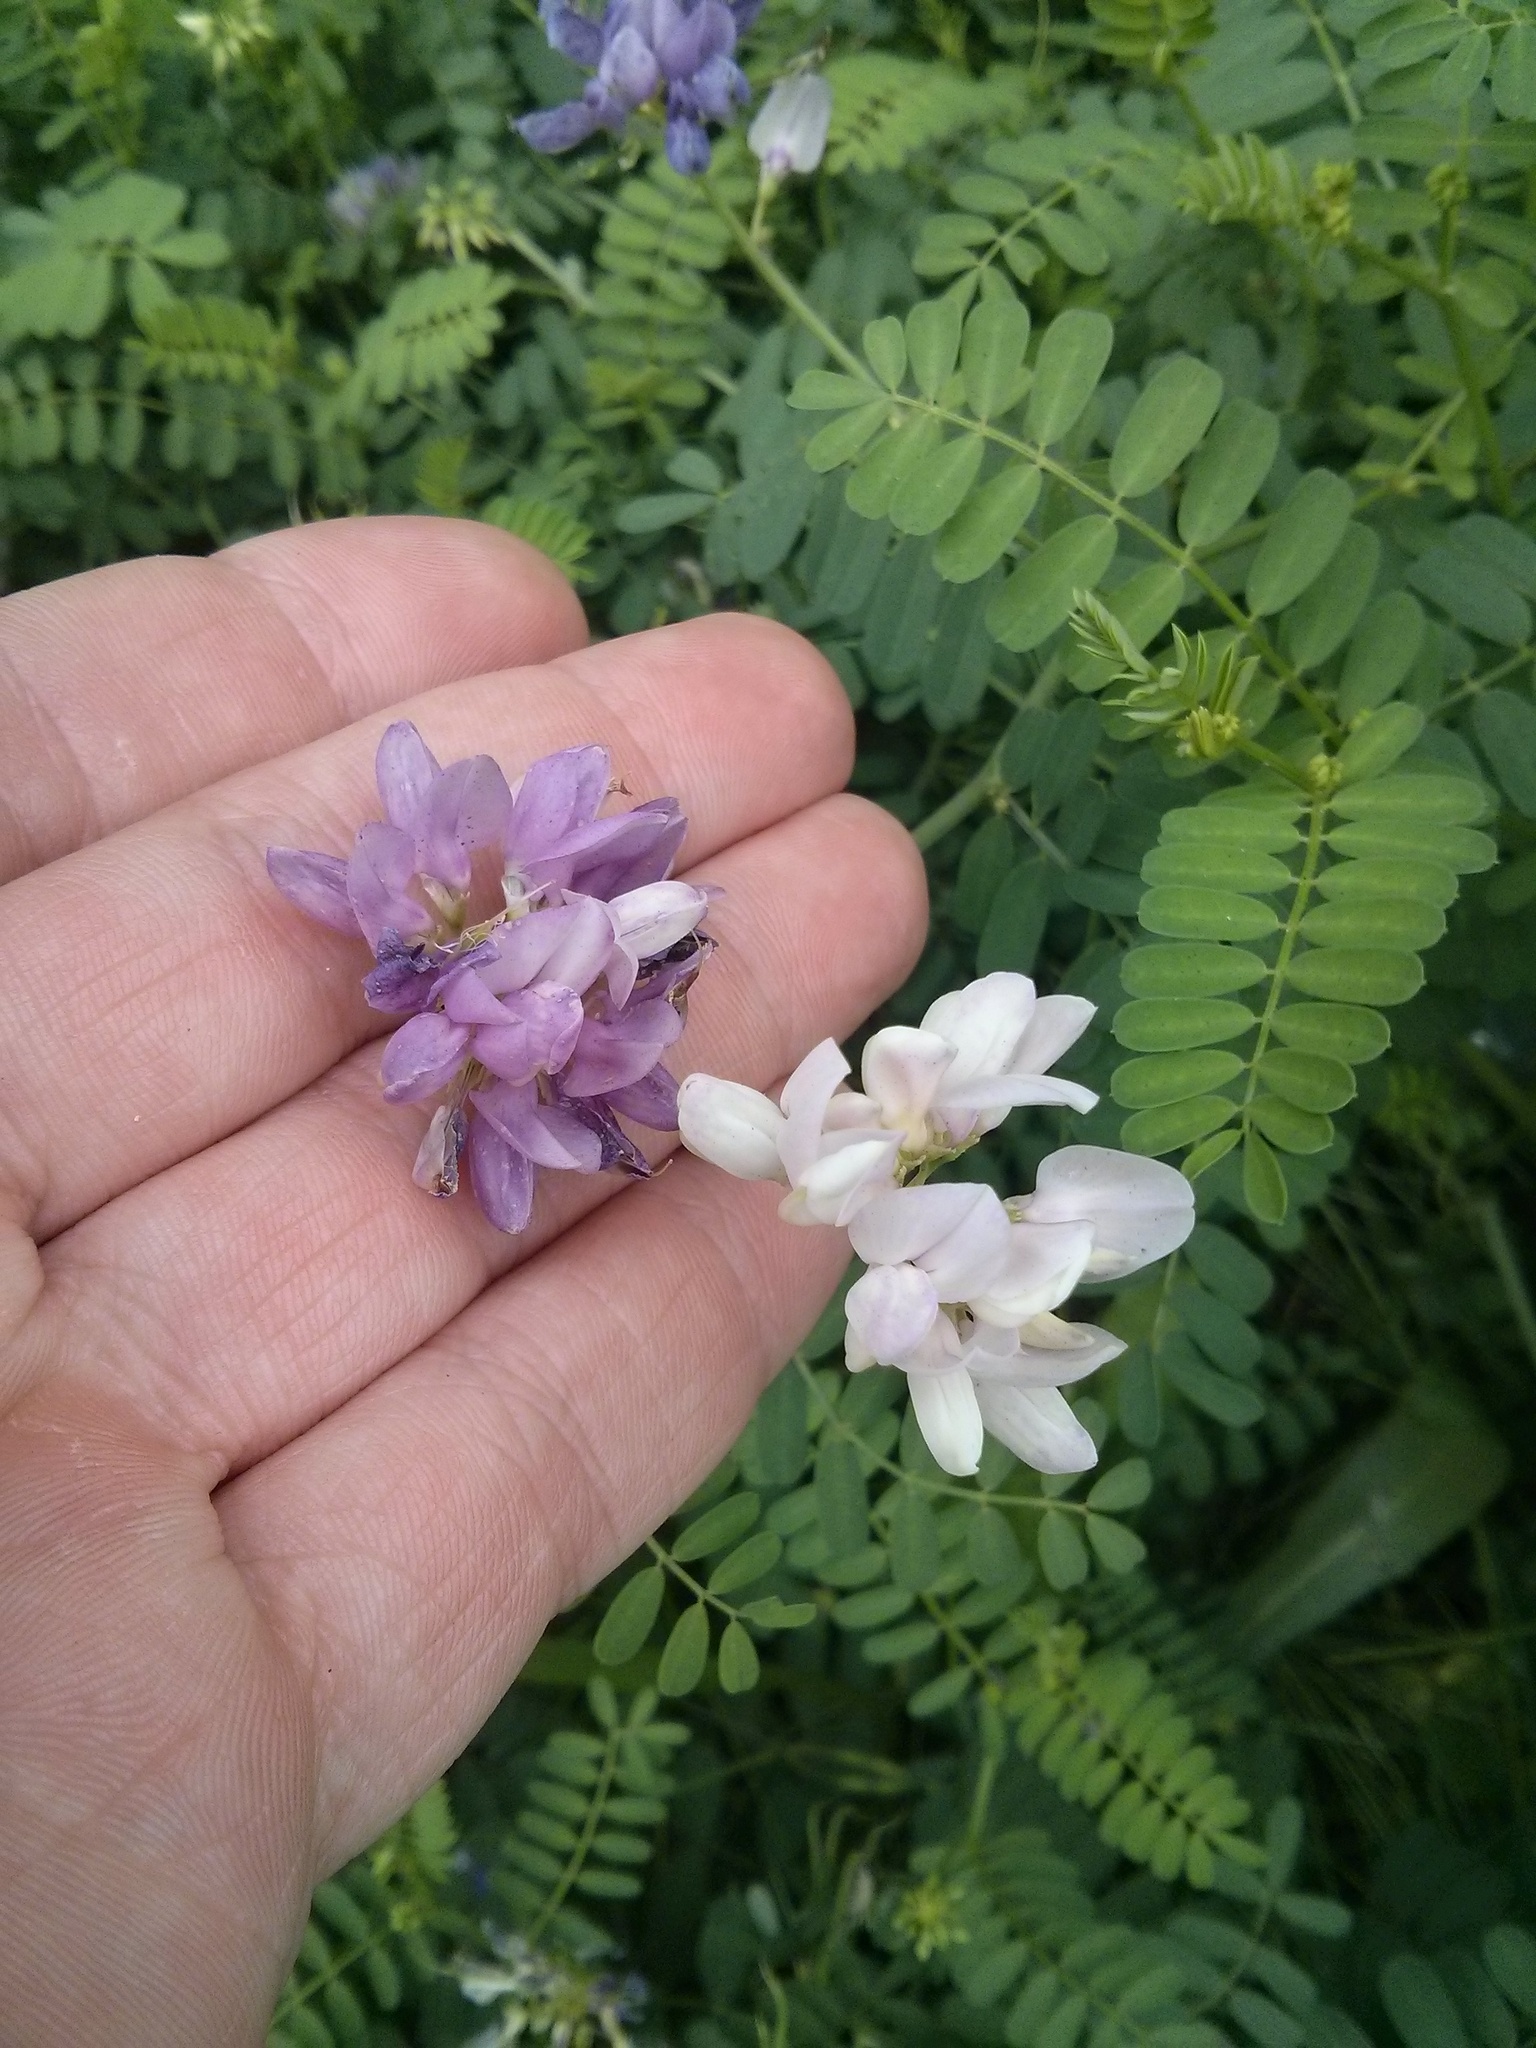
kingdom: Plantae
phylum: Tracheophyta
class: Magnoliopsida
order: Fabales
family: Fabaceae
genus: Coronilla
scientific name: Coronilla varia
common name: Crownvetch
